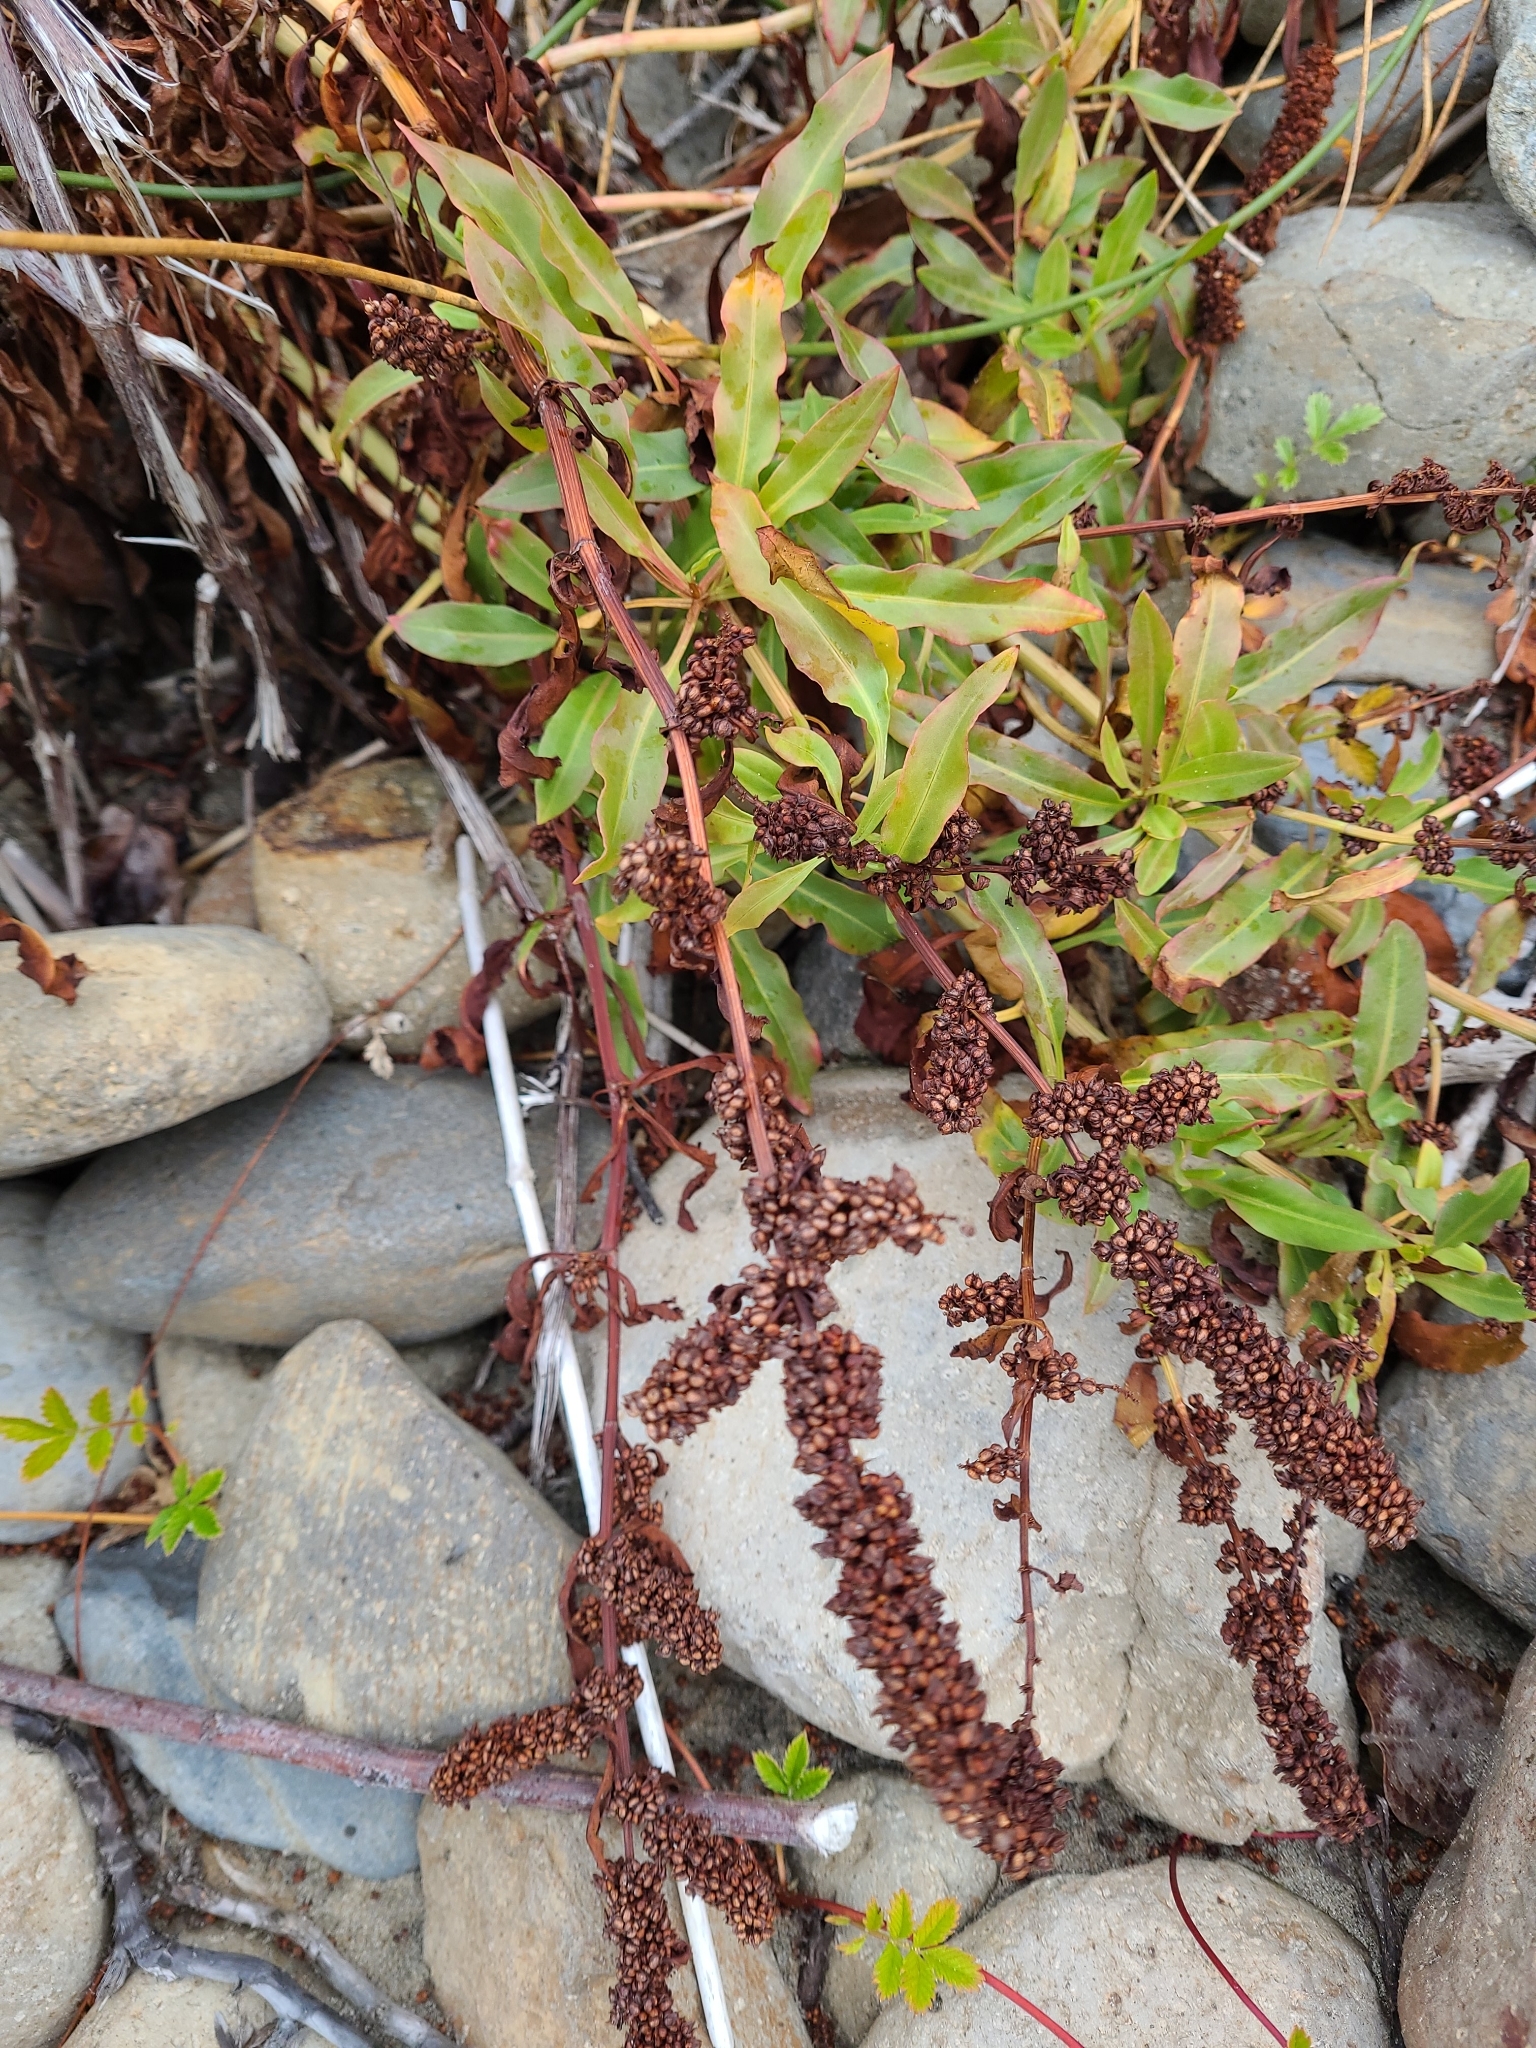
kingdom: Plantae
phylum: Tracheophyta
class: Magnoliopsida
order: Caryophyllales
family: Polygonaceae
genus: Rumex
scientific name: Rumex transitorius
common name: Pacific willow dock
